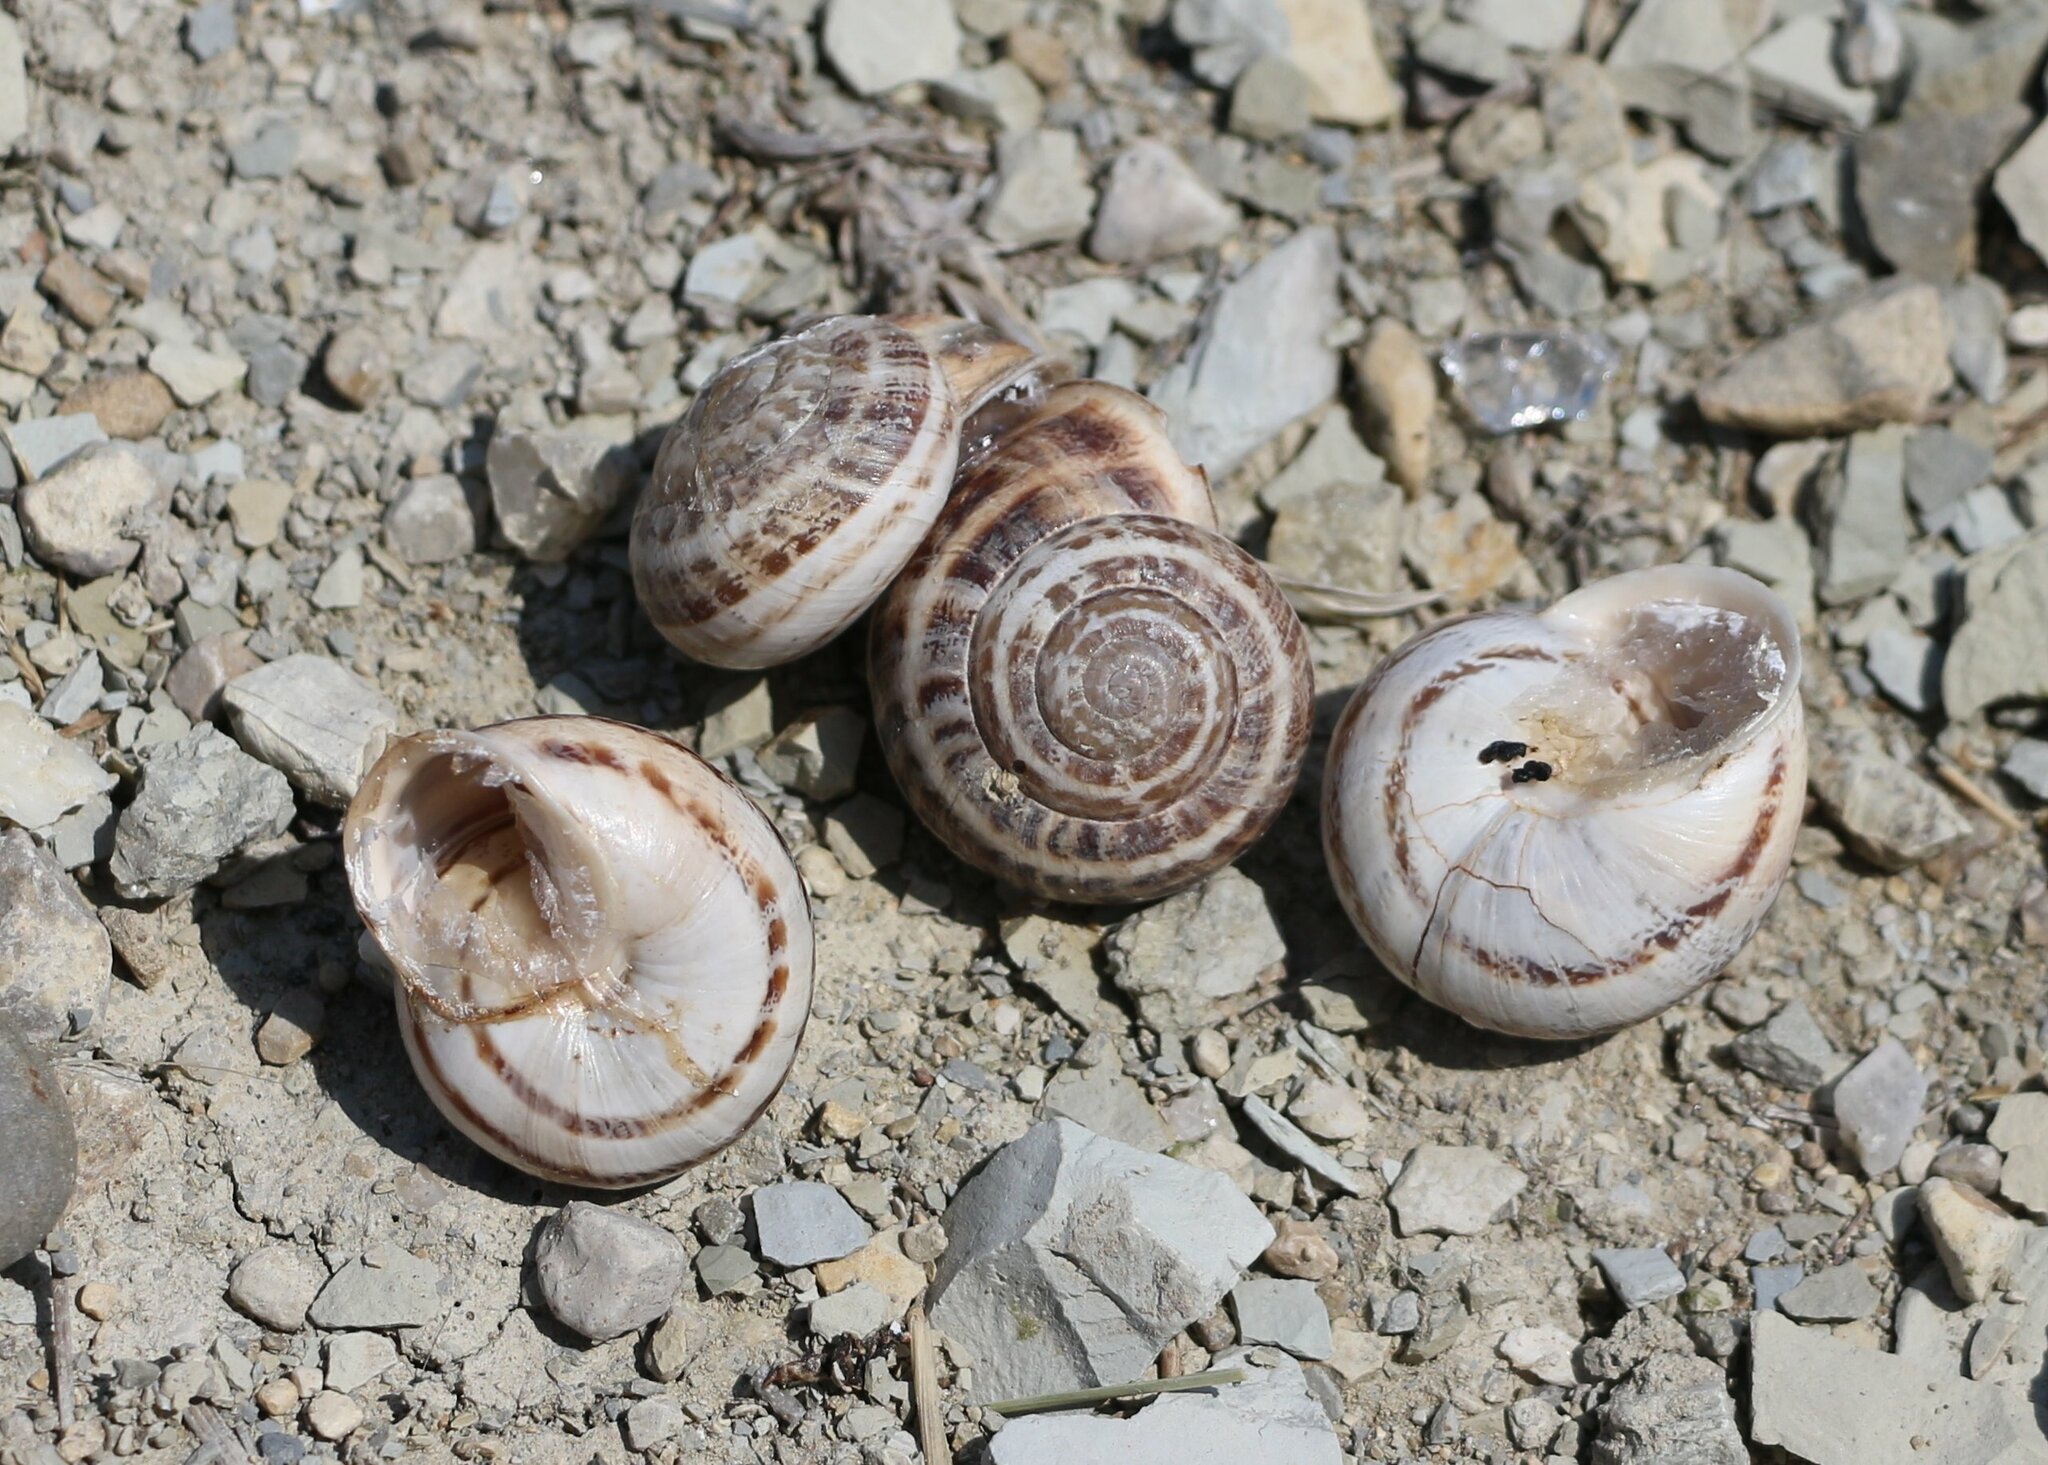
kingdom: Animalia
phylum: Mollusca
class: Gastropoda
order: Stylommatophora
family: Helicidae
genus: Eobania
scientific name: Eobania vermiculata
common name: Chocolateband snail
